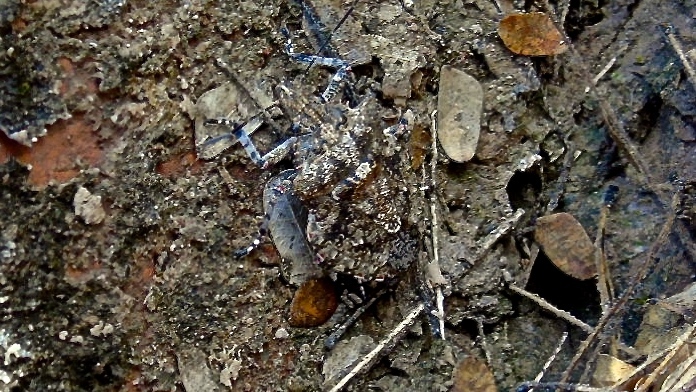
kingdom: Animalia
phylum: Arthropoda
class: Insecta
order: Hemiptera
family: Pentatomidae
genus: Brochymena
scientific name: Brochymena
